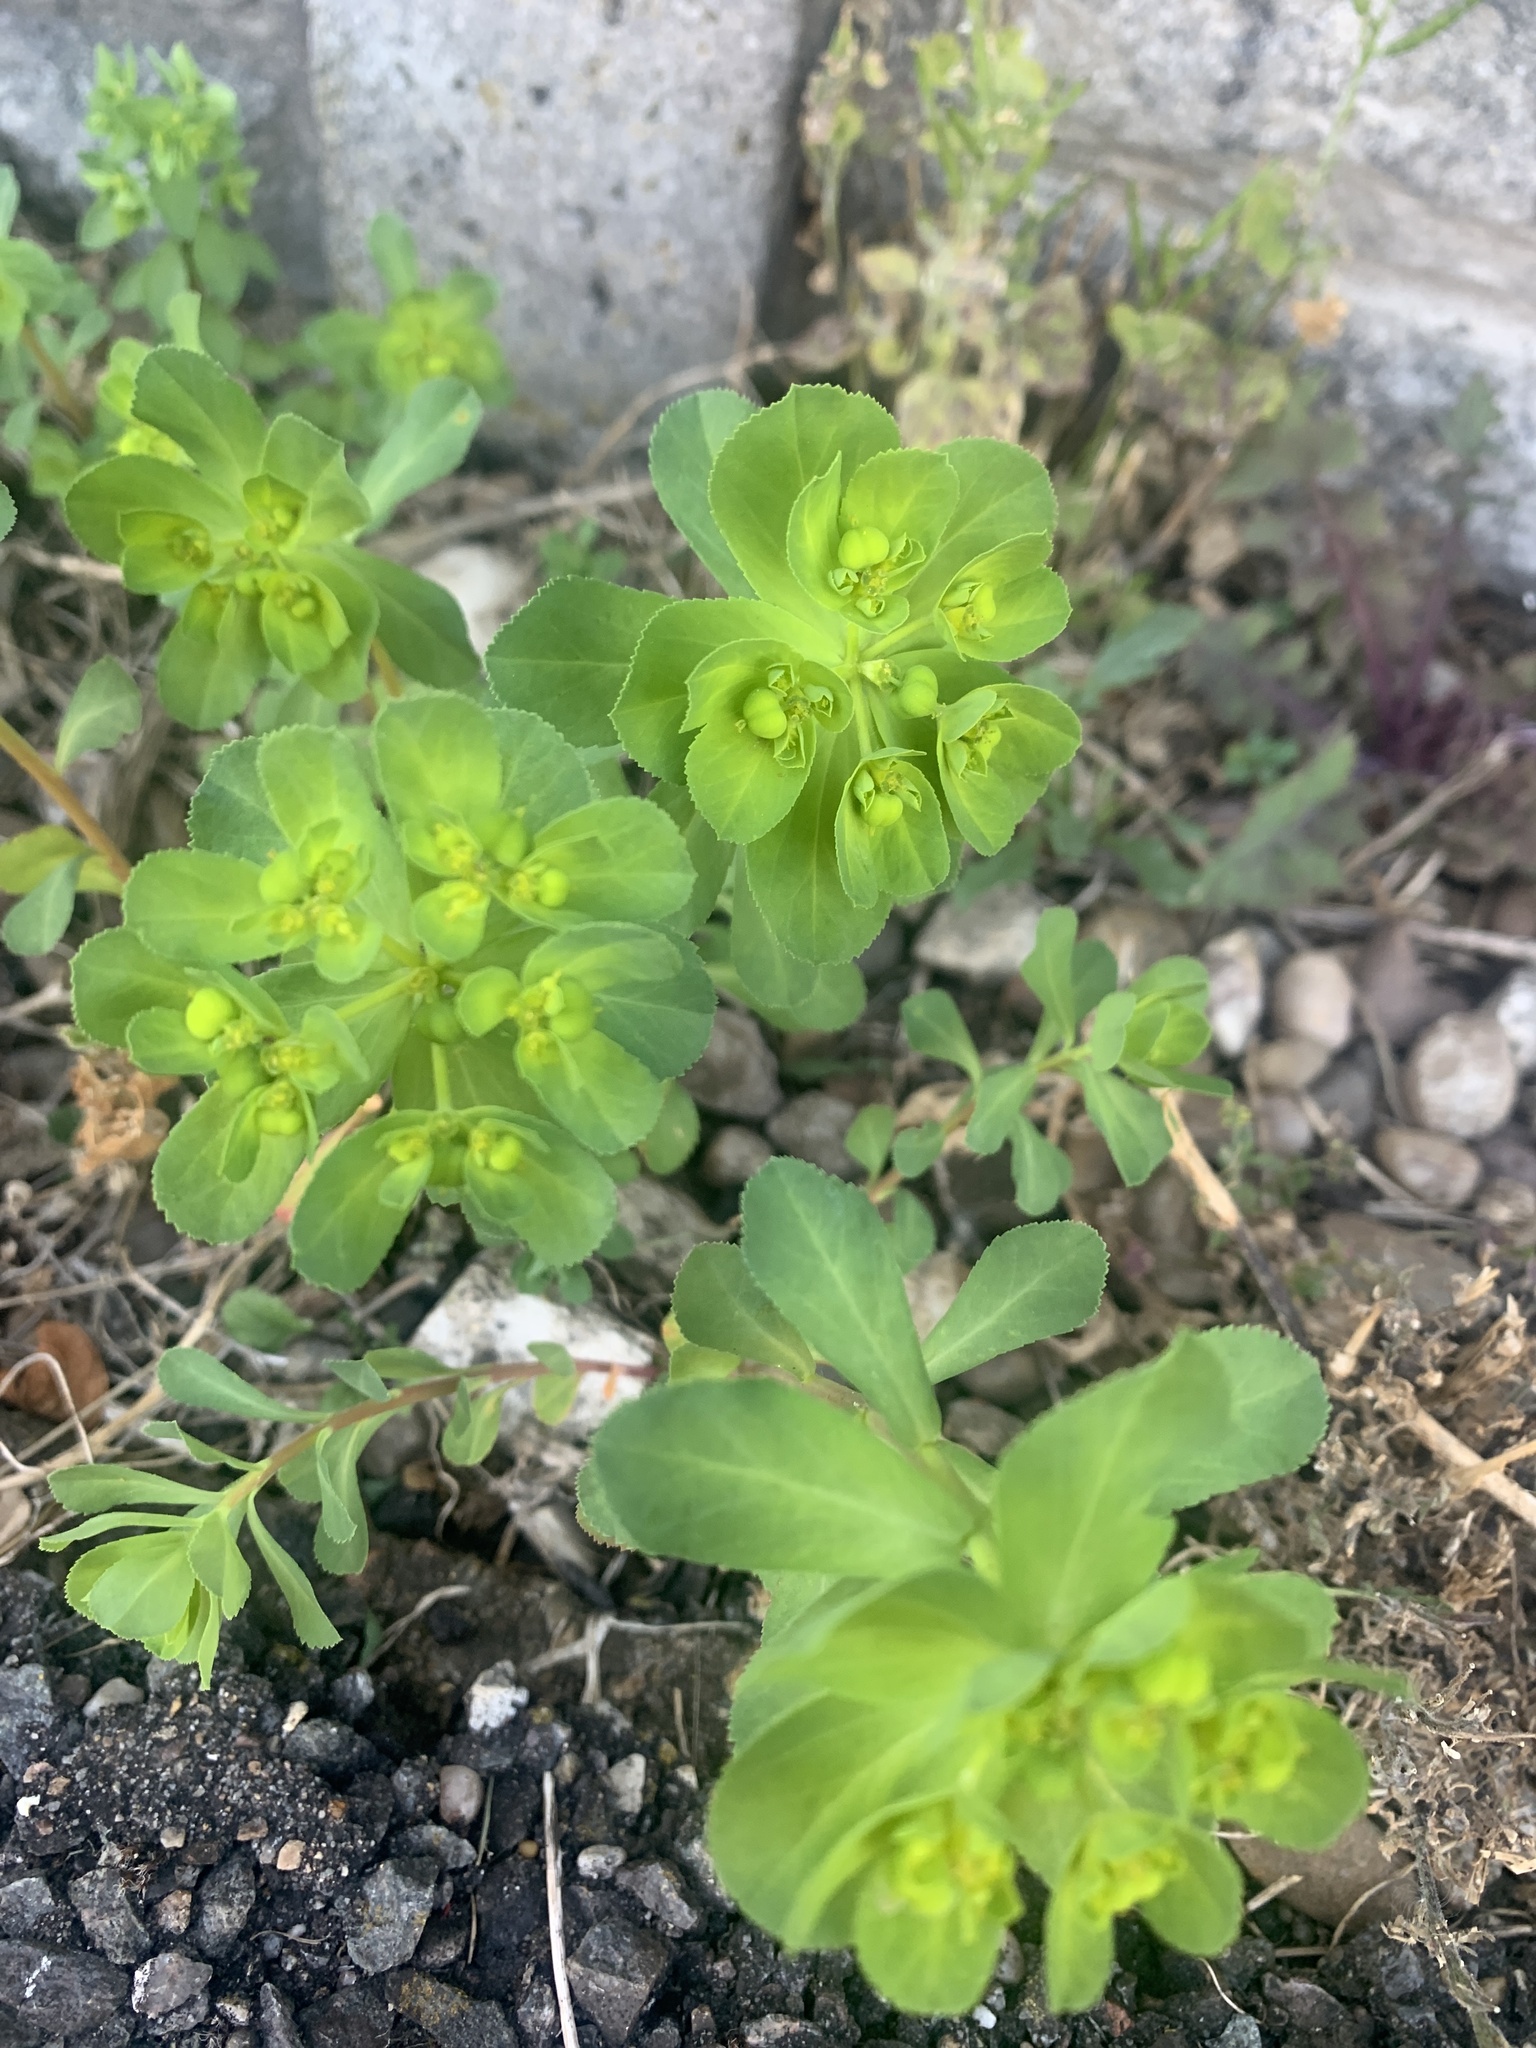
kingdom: Plantae
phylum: Tracheophyta
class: Magnoliopsida
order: Malpighiales
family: Euphorbiaceae
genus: Euphorbia
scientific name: Euphorbia helioscopia
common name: Sun spurge
